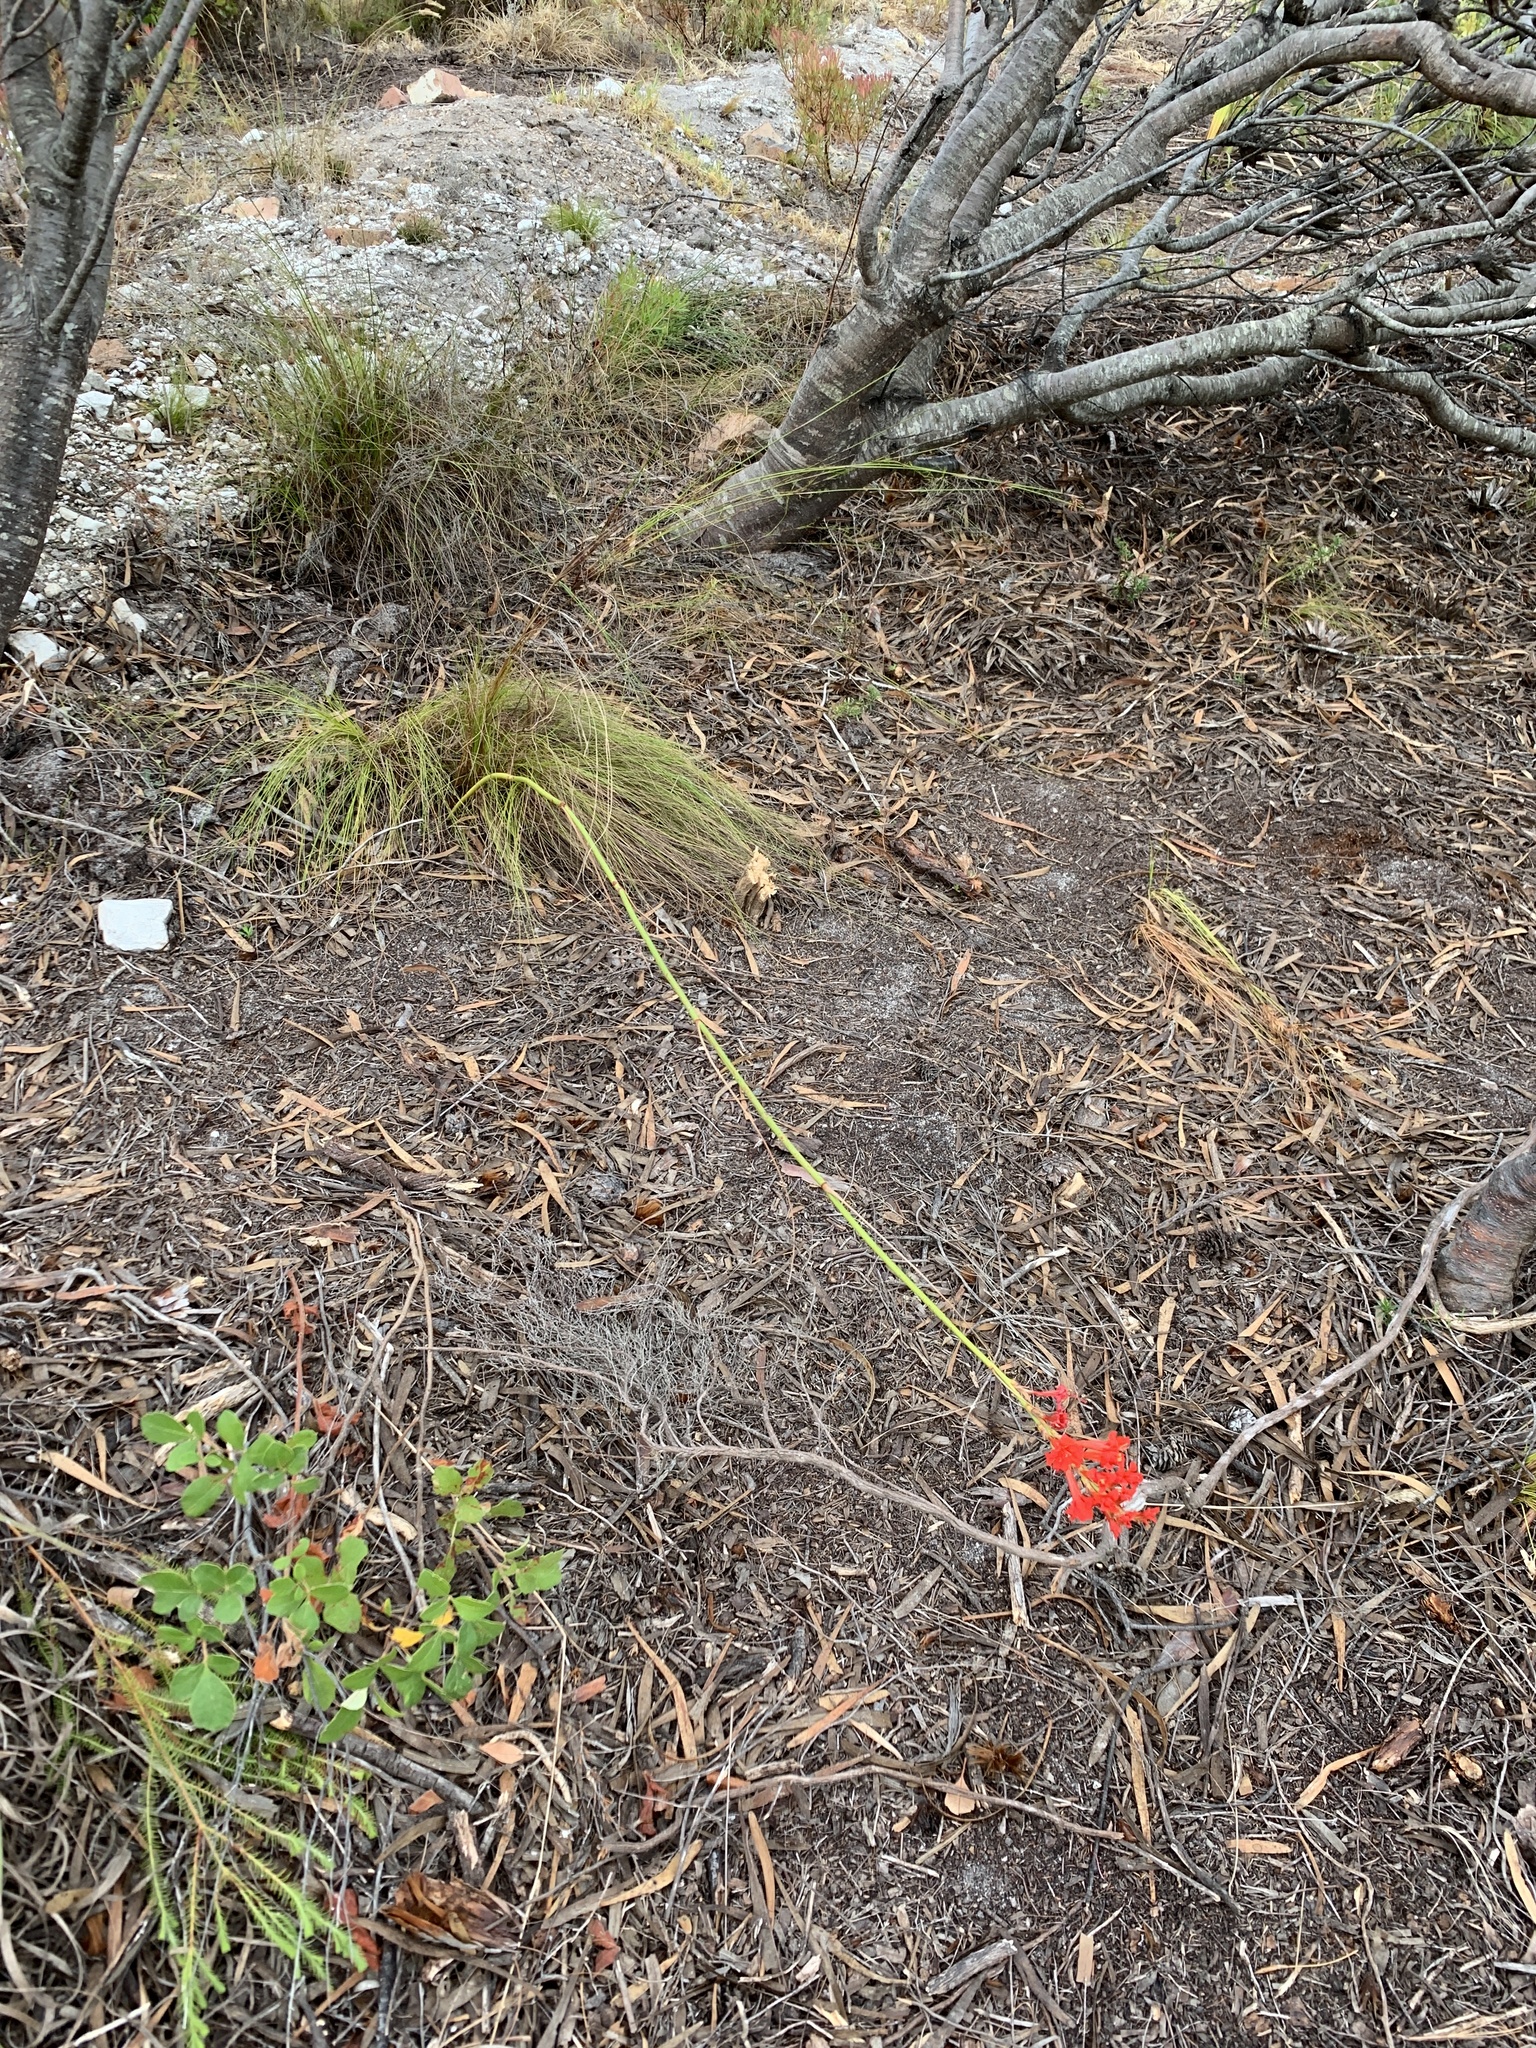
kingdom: Plantae
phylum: Tracheophyta
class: Liliopsida
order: Asparagales
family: Iridaceae
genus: Tritoniopsis
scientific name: Tritoniopsis triticea
